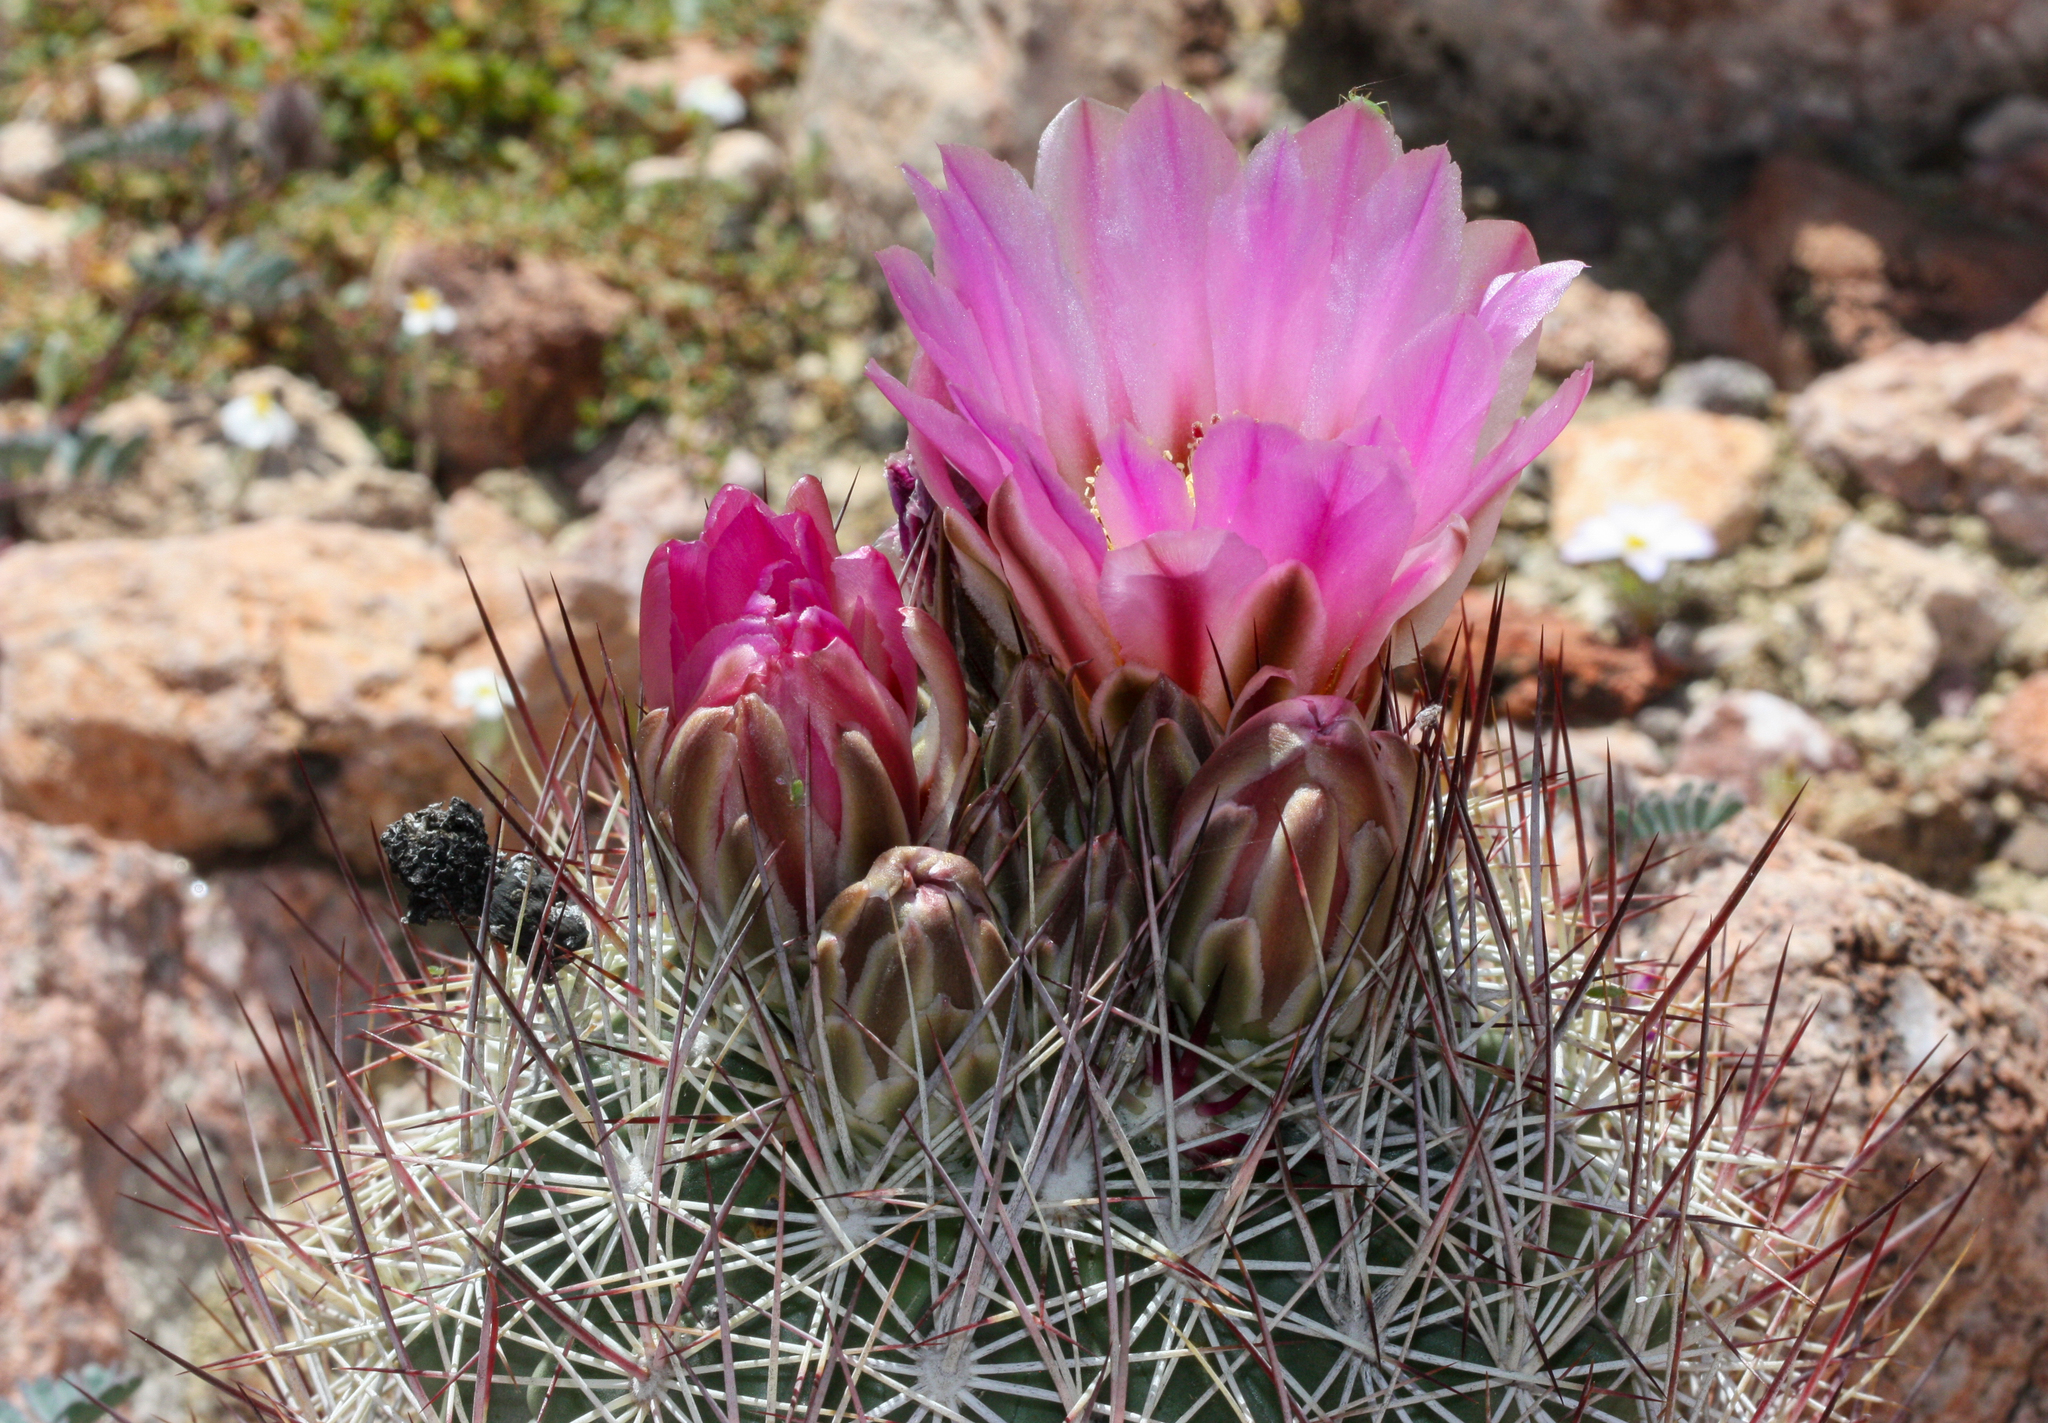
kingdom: Plantae
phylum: Tracheophyta
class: Magnoliopsida
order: Caryophyllales
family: Cactaceae
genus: Sclerocactus
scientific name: Sclerocactus johnsonii
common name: Eight-spine fishhook cactus
